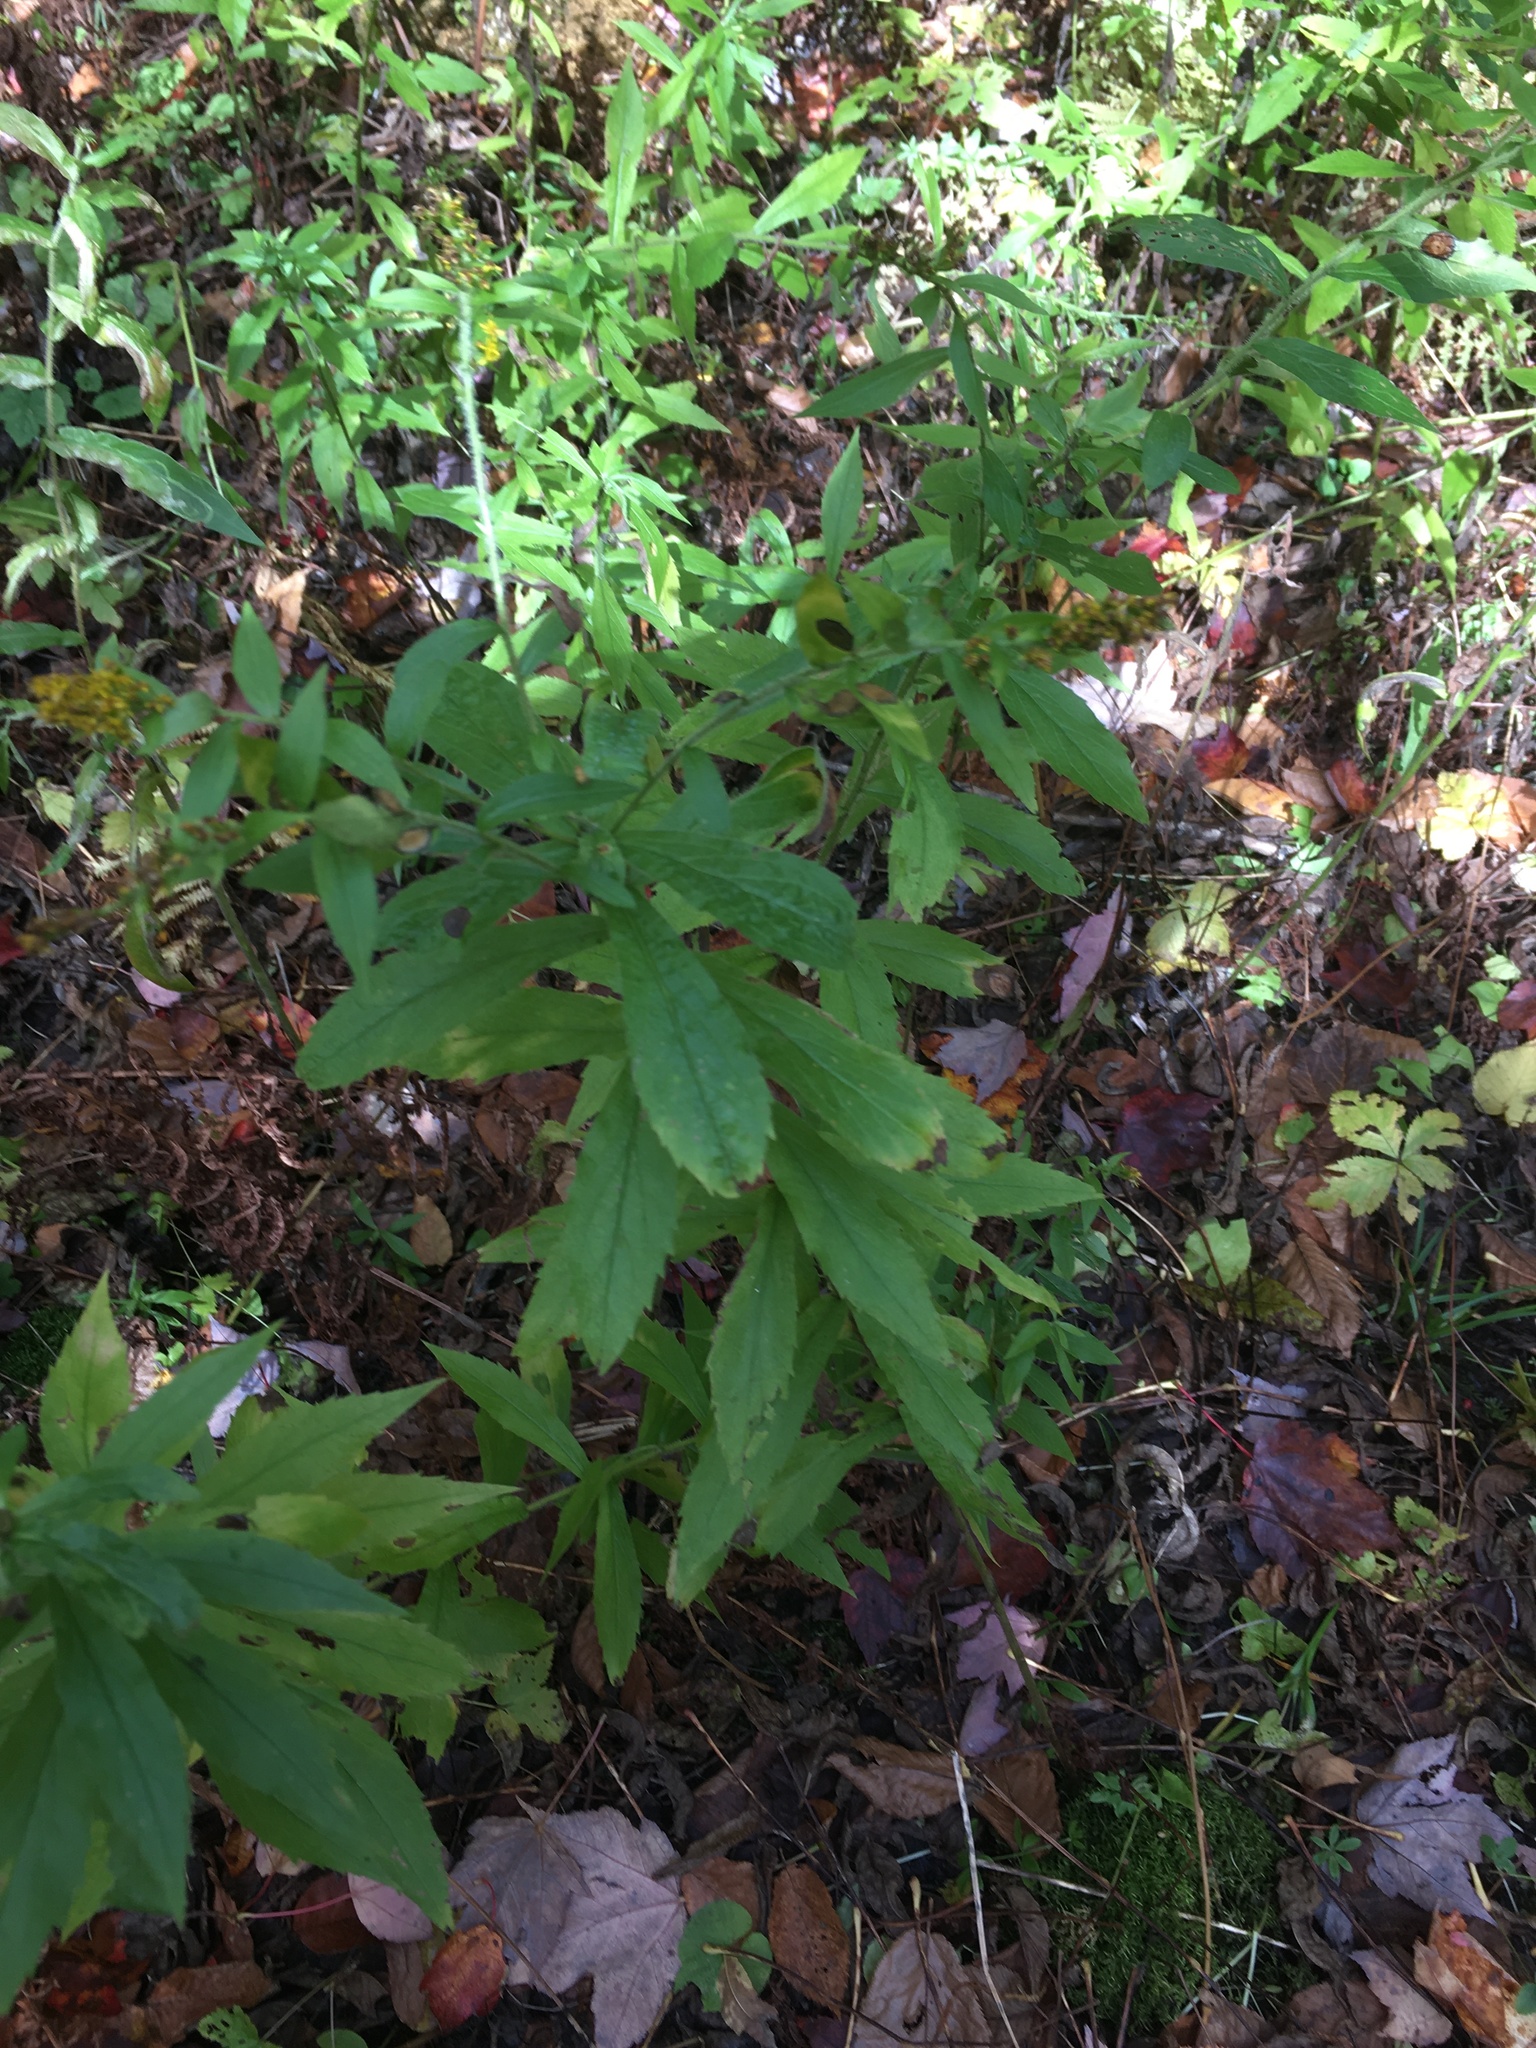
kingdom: Plantae
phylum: Tracheophyta
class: Magnoliopsida
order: Asterales
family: Asteraceae
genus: Solidago
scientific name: Solidago rugosa
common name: Rough-stemmed goldenrod
